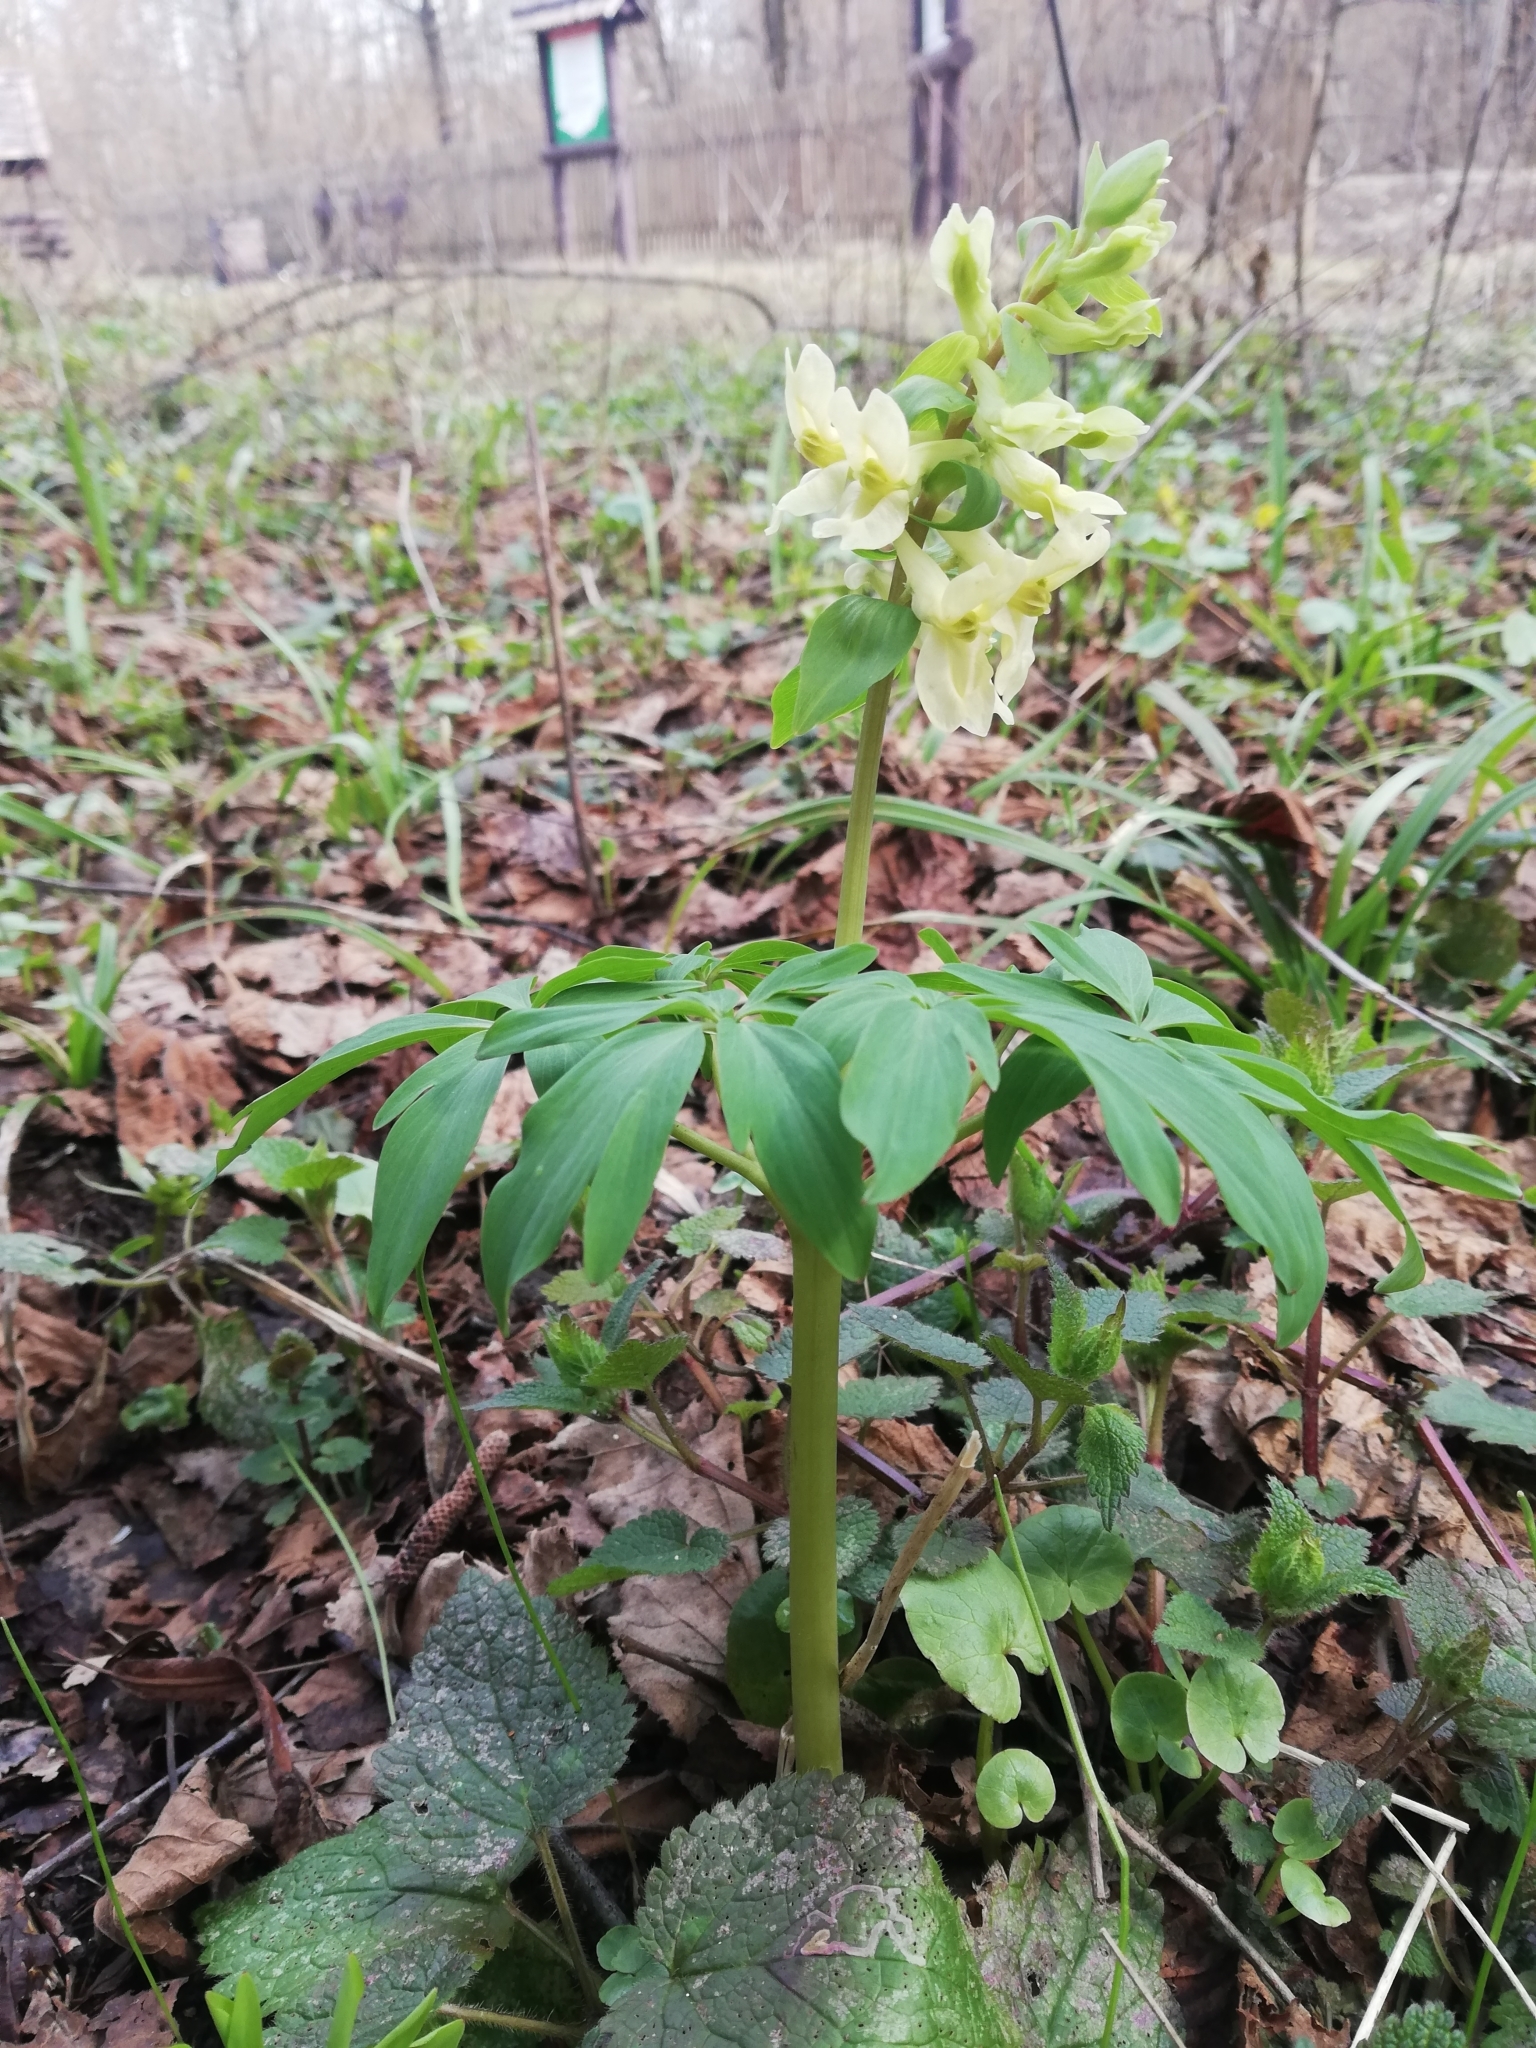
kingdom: Plantae
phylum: Tracheophyta
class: Magnoliopsida
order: Ranunculales
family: Papaveraceae
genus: Corydalis
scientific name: Corydalis cava
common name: Hollowroot
